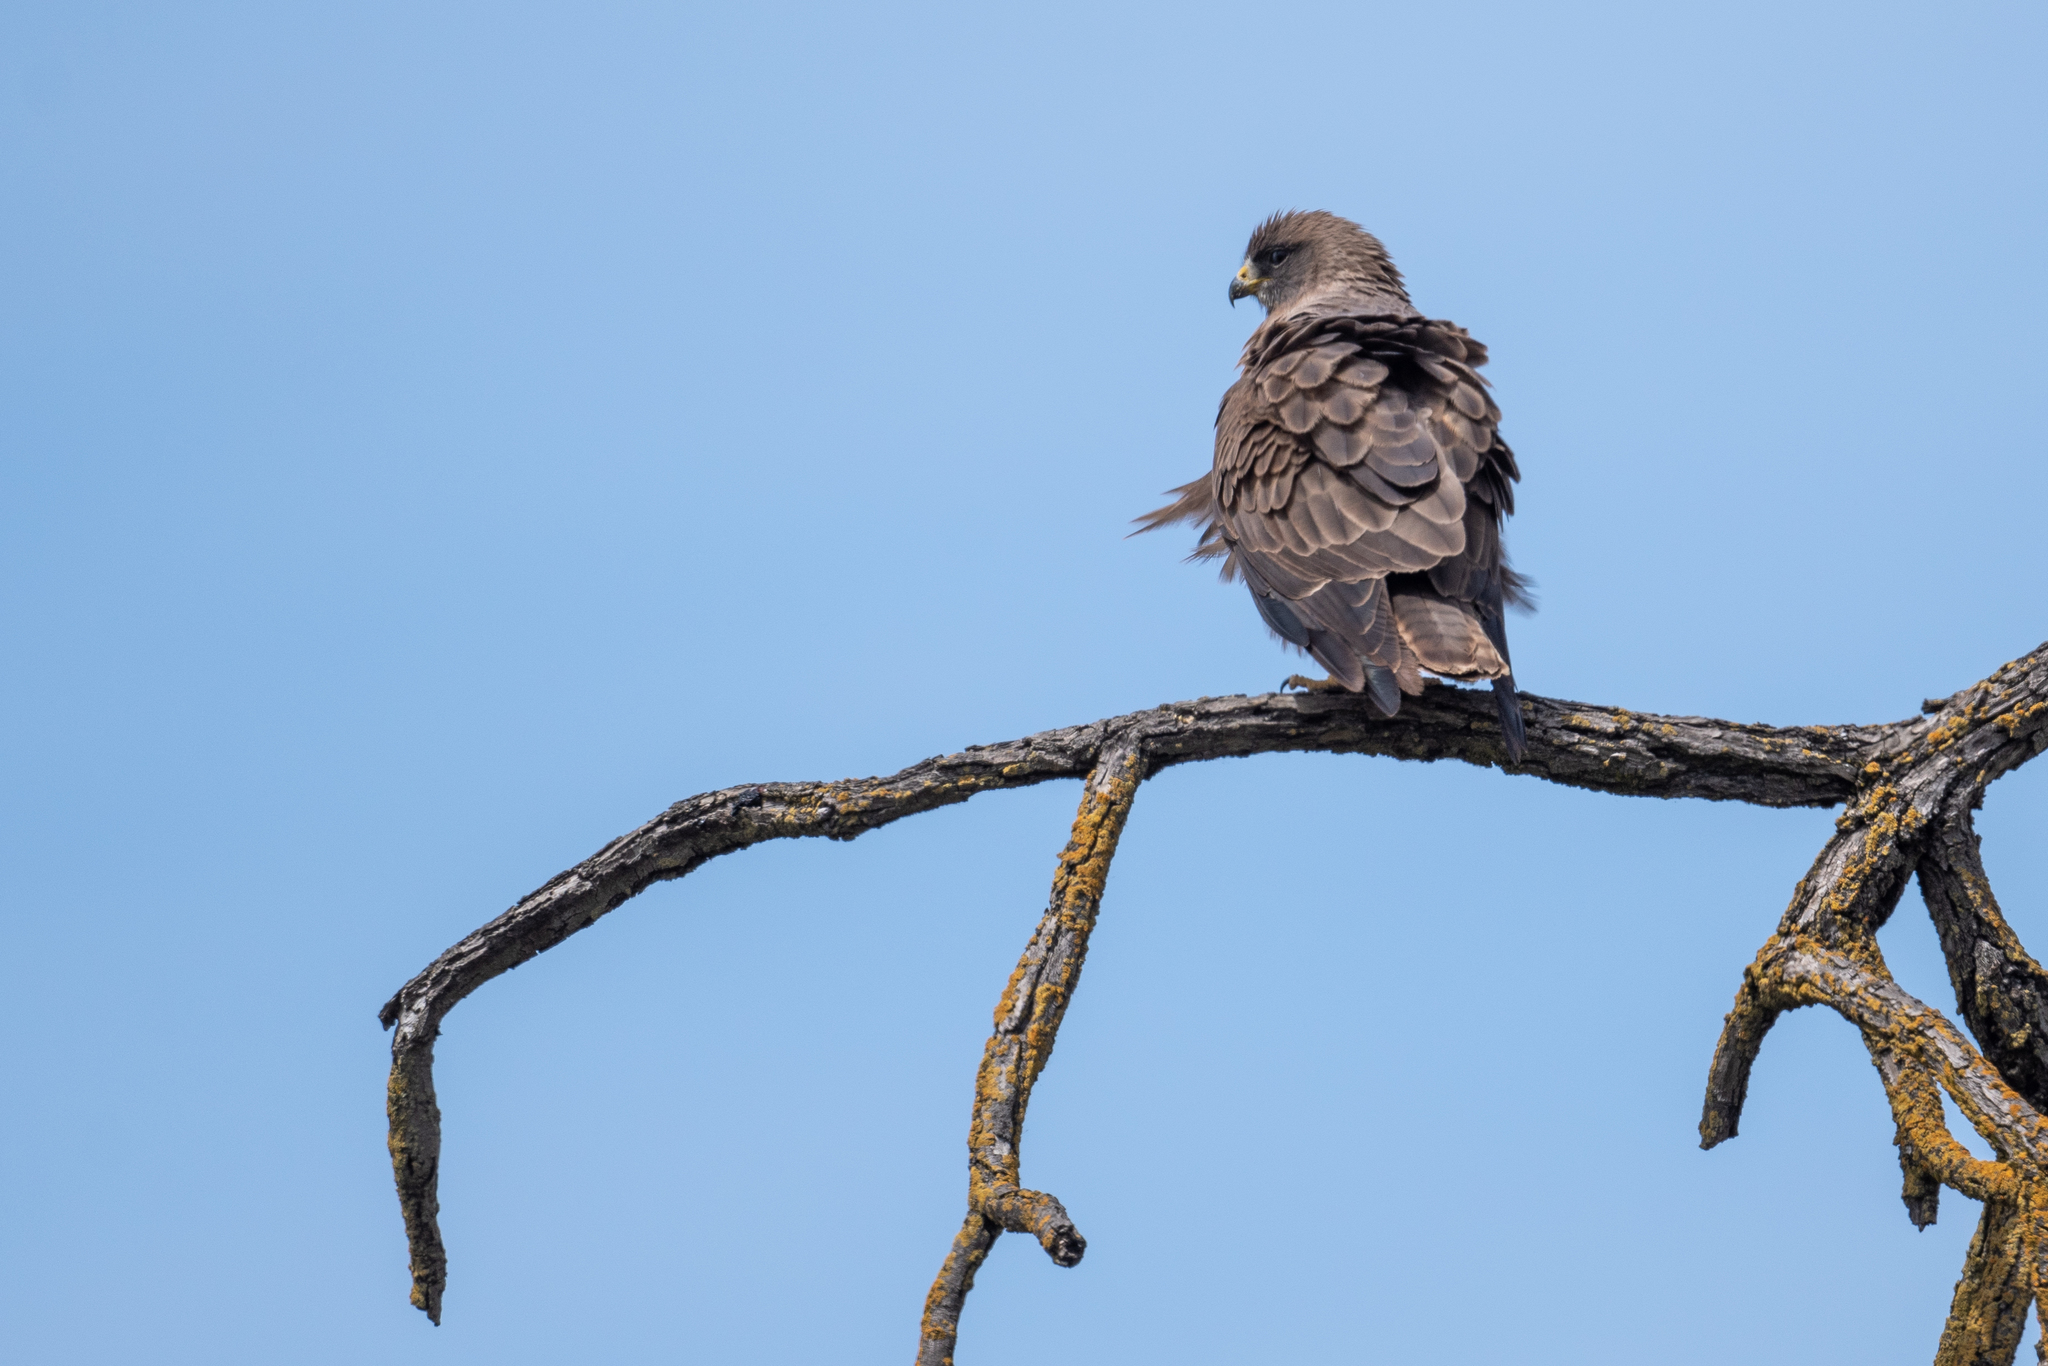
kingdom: Animalia
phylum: Chordata
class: Aves
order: Accipitriformes
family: Accipitridae
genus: Buteo
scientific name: Buteo swainsoni
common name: Swainson's hawk
